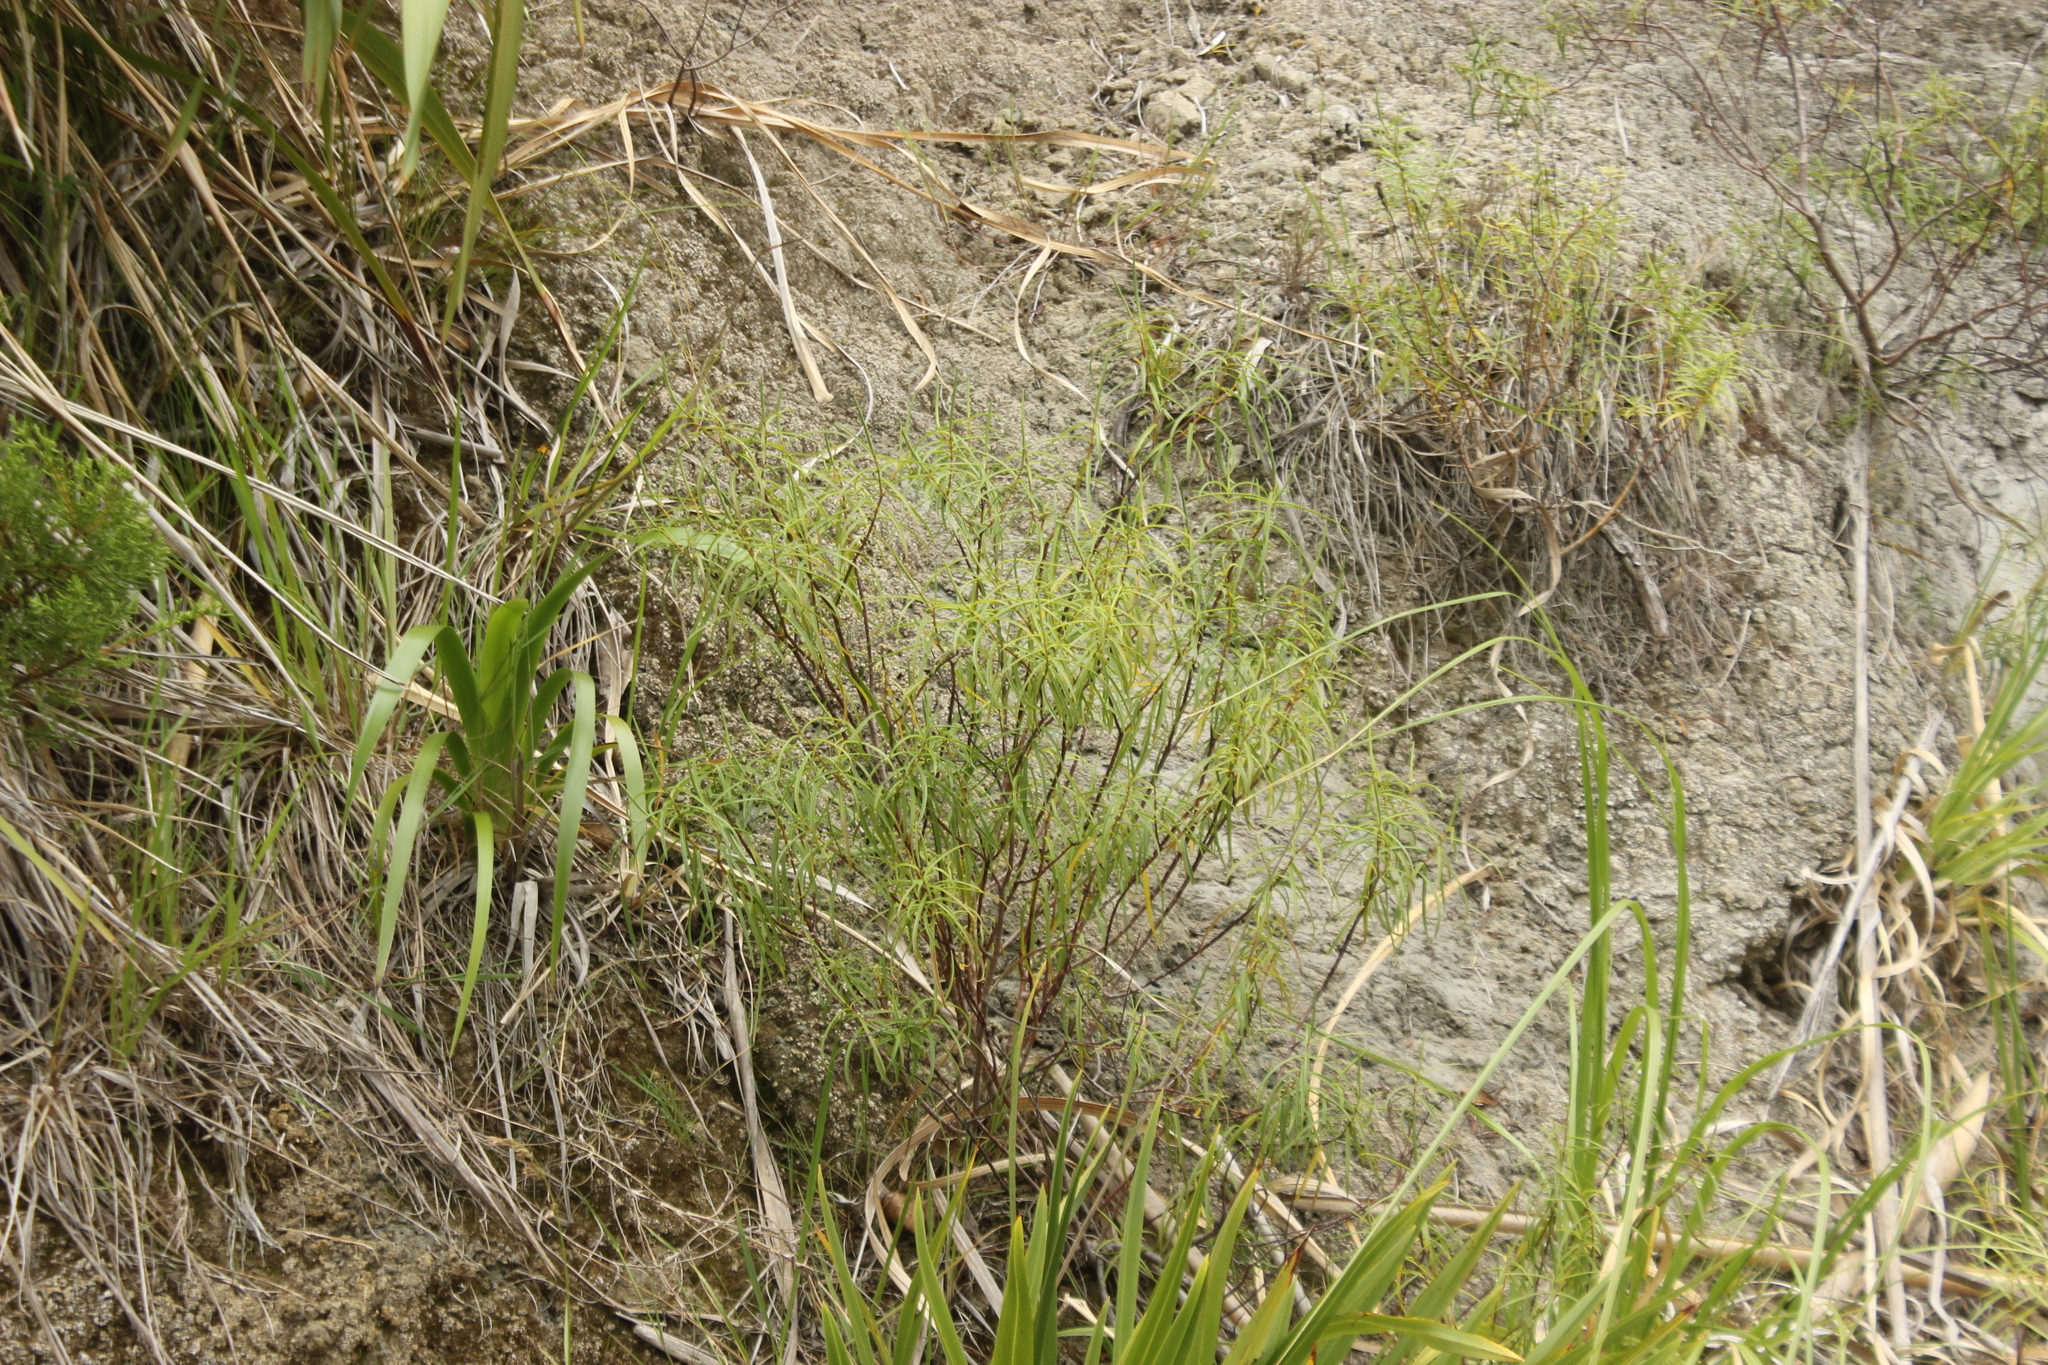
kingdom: Plantae
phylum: Tracheophyta
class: Magnoliopsida
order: Lamiales
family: Plantaginaceae
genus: Veronica
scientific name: Veronica stenophylla
